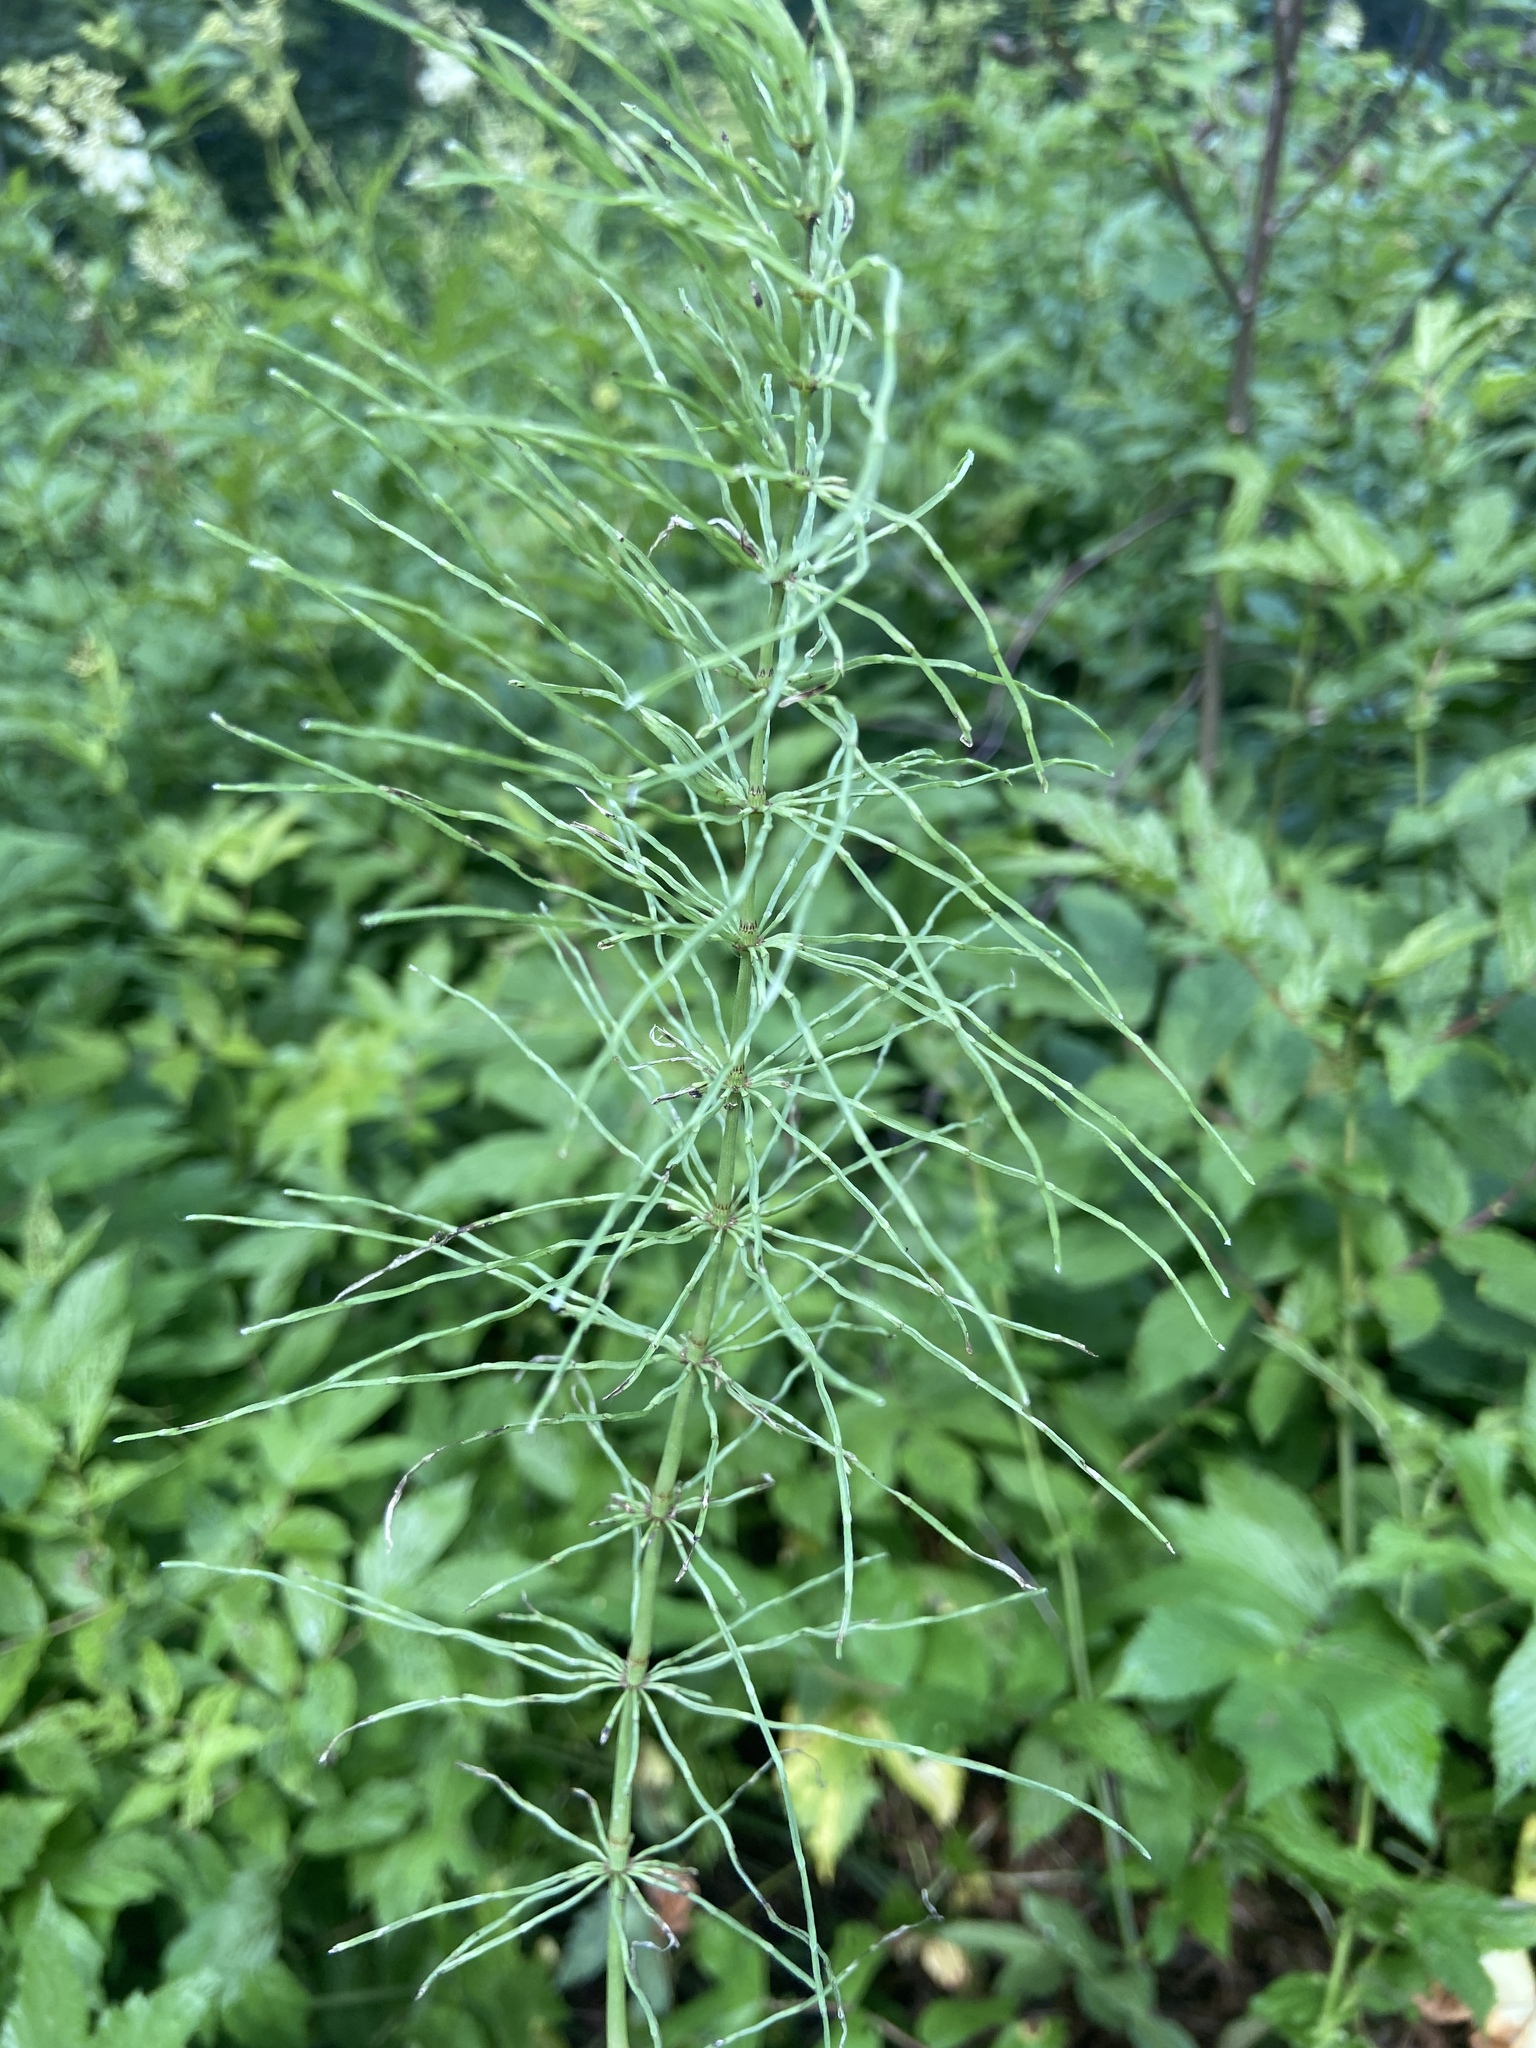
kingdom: Plantae
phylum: Tracheophyta
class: Polypodiopsida
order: Equisetales
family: Equisetaceae
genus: Equisetum
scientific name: Equisetum arvense
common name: Field horsetail
